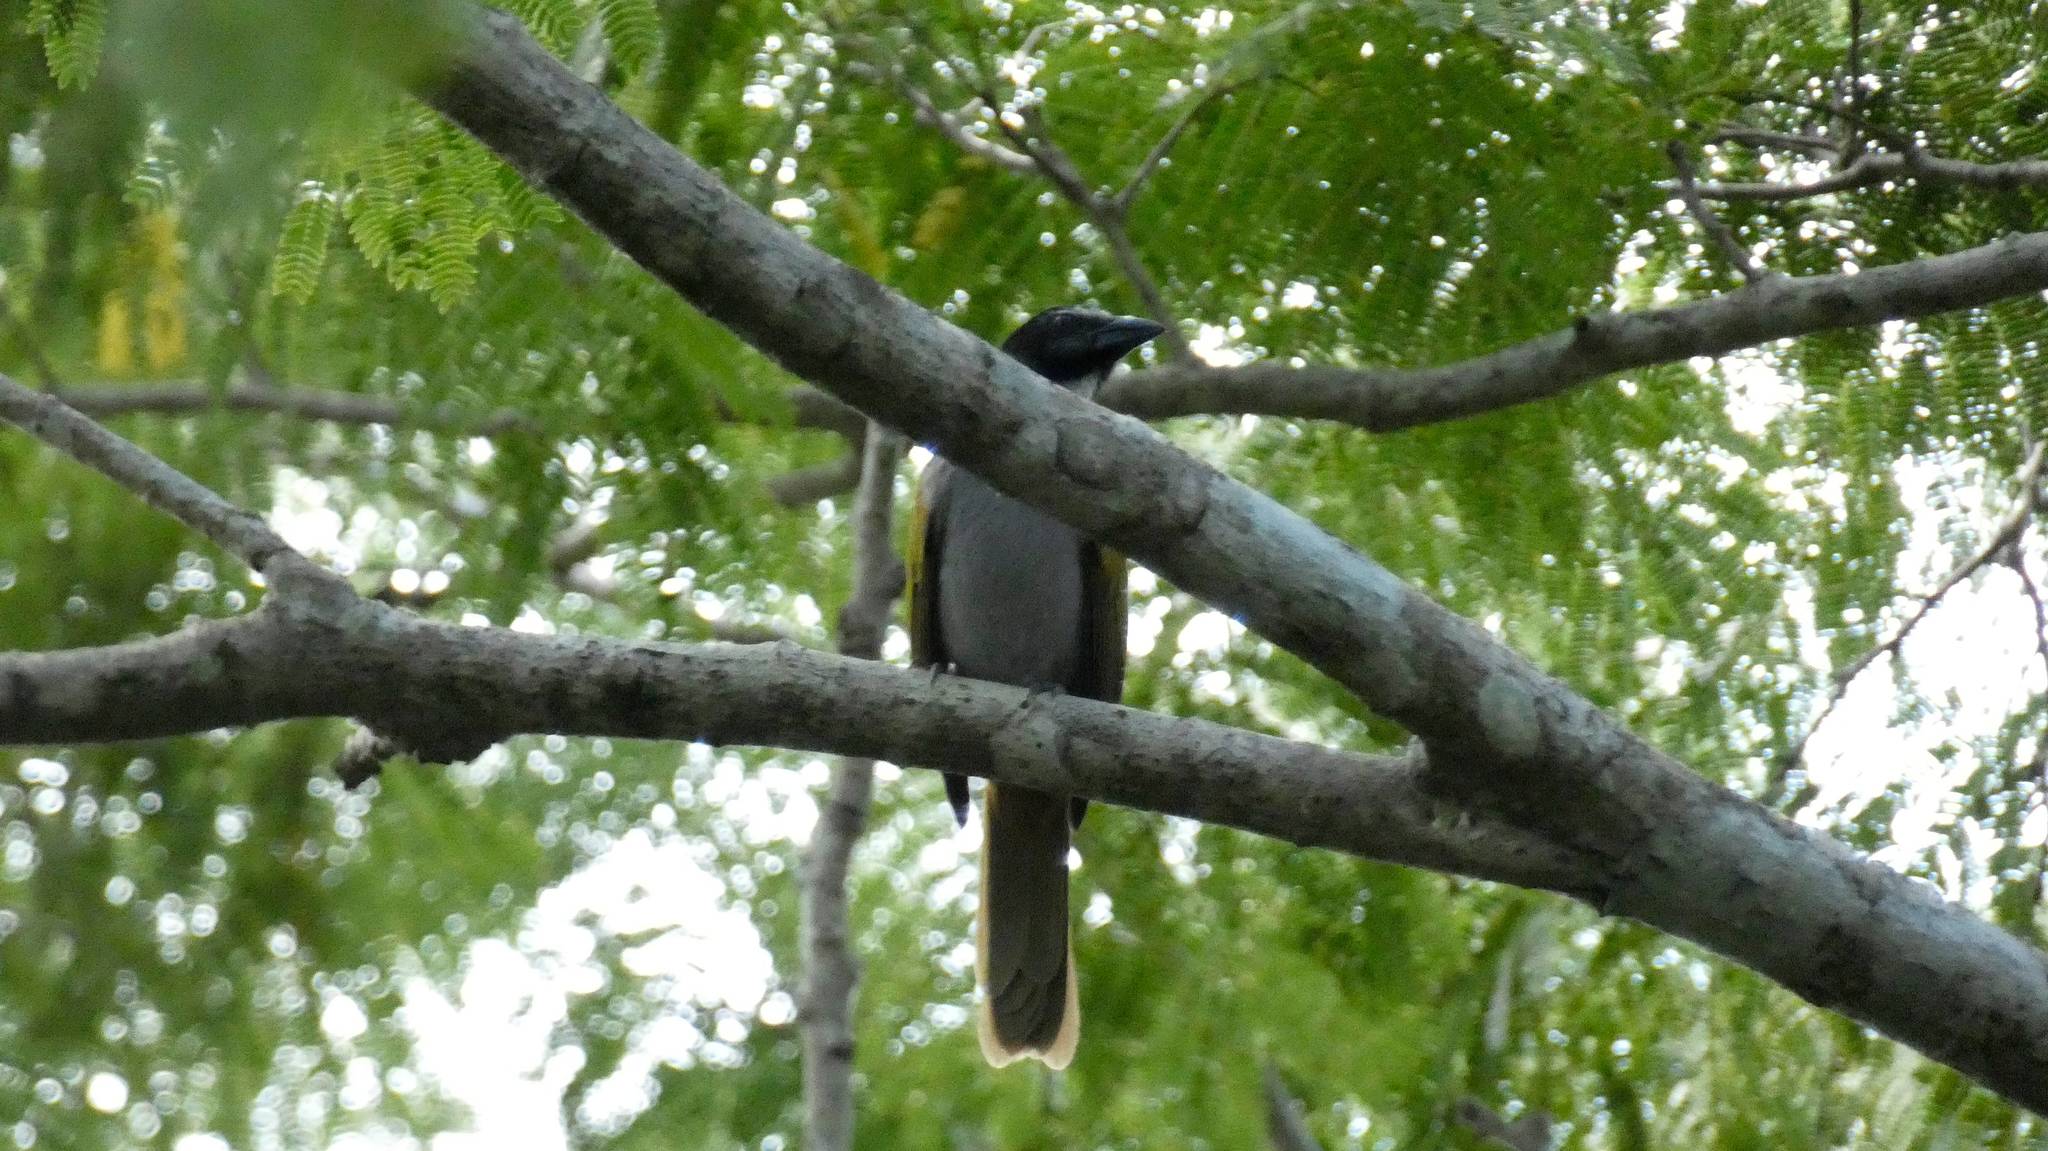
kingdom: Animalia
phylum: Chordata
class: Aves
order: Passeriformes
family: Thraupidae
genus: Saltator
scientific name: Saltator atriceps
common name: Black-headed saltator
